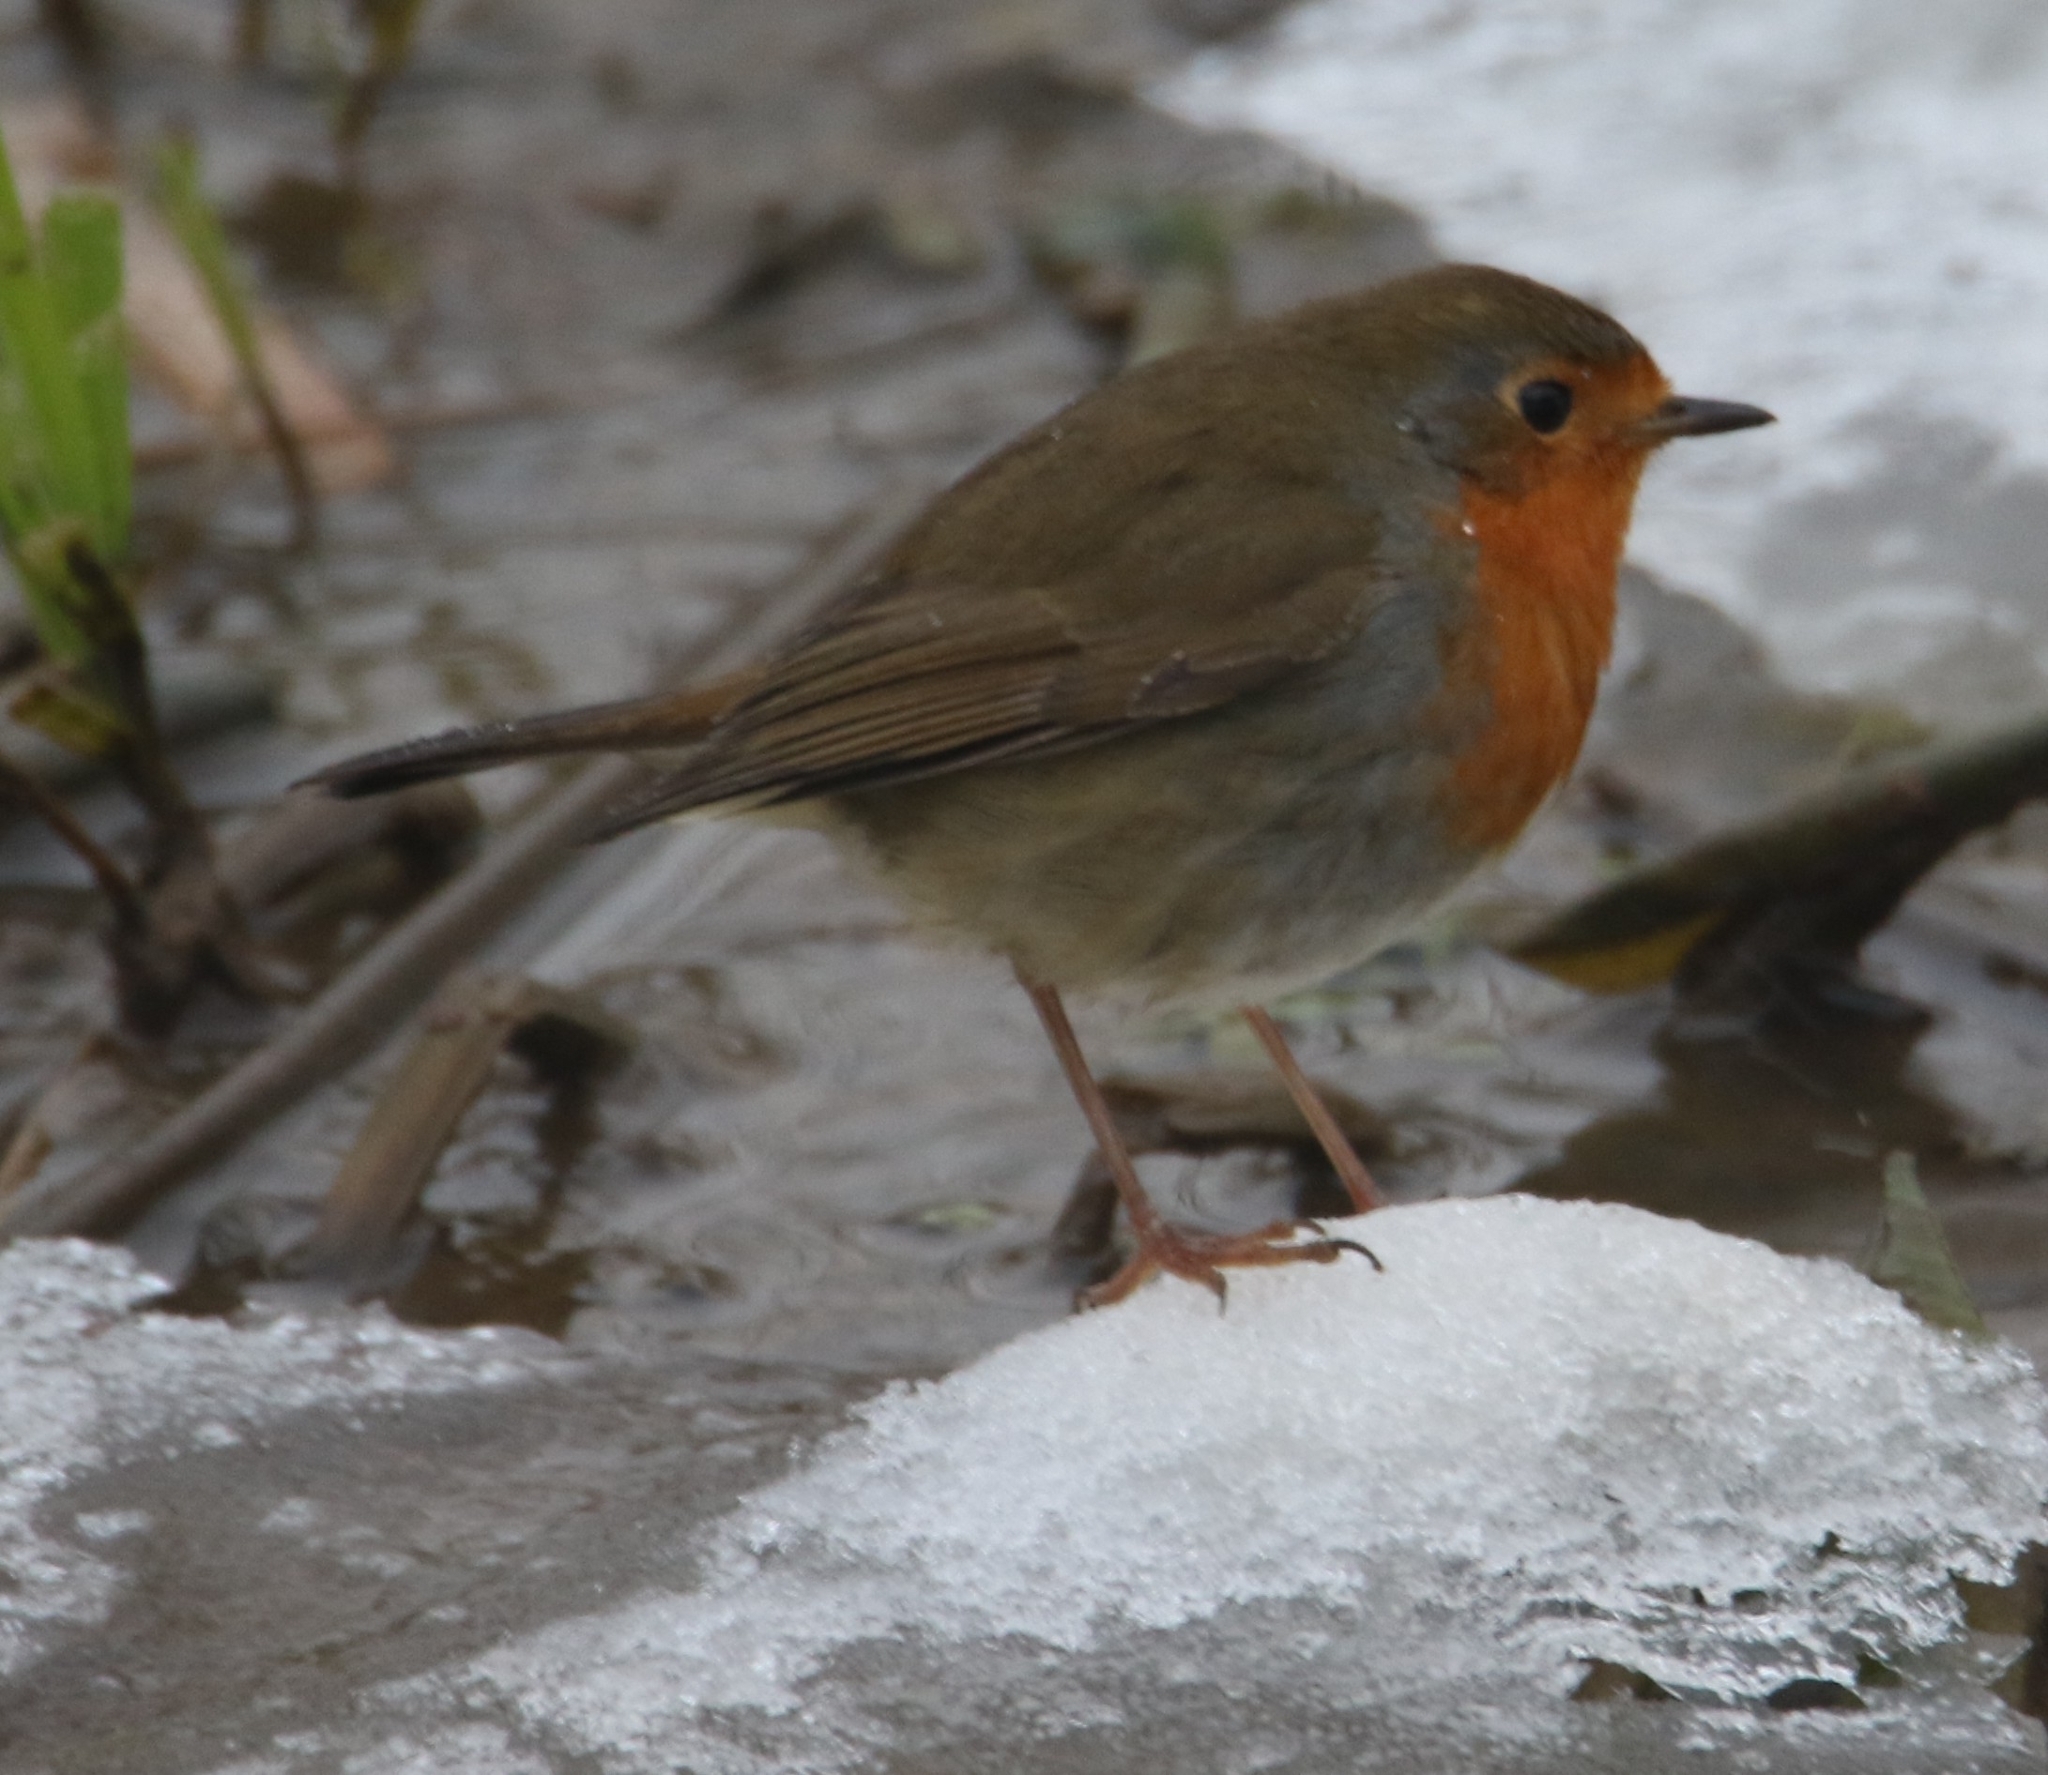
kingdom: Animalia
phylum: Chordata
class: Aves
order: Passeriformes
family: Muscicapidae
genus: Erithacus
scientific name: Erithacus rubecula
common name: European robin
